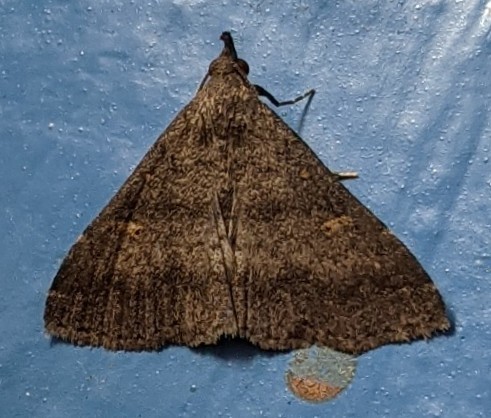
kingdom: Animalia
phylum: Arthropoda
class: Insecta
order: Lepidoptera
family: Erebidae
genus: Renia
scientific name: Renia sobrialis
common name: Sober renia moth
